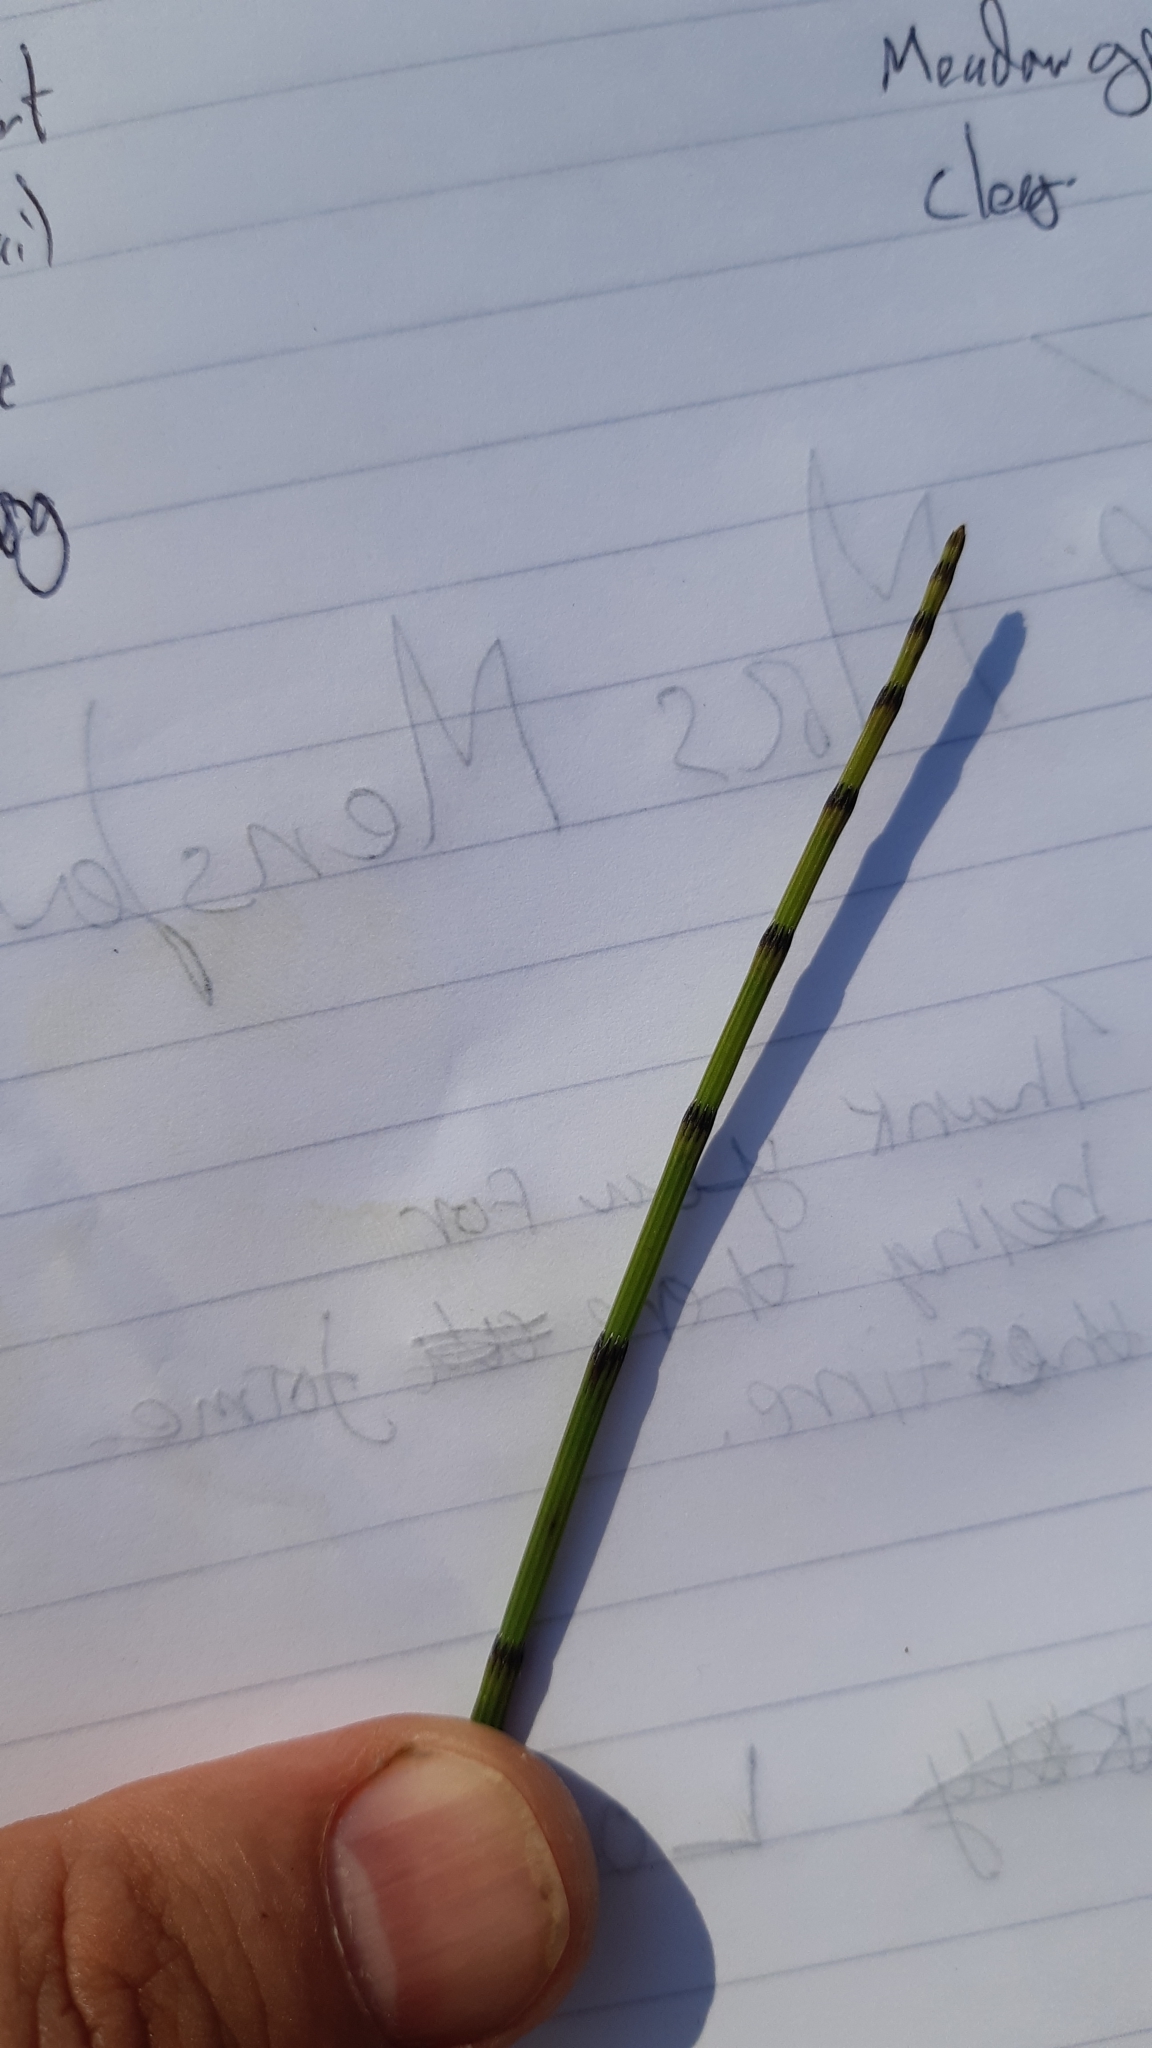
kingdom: Plantae
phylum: Tracheophyta
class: Polypodiopsida
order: Equisetales
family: Equisetaceae
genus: Equisetum
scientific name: Equisetum palustre
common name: Marsh horsetail
